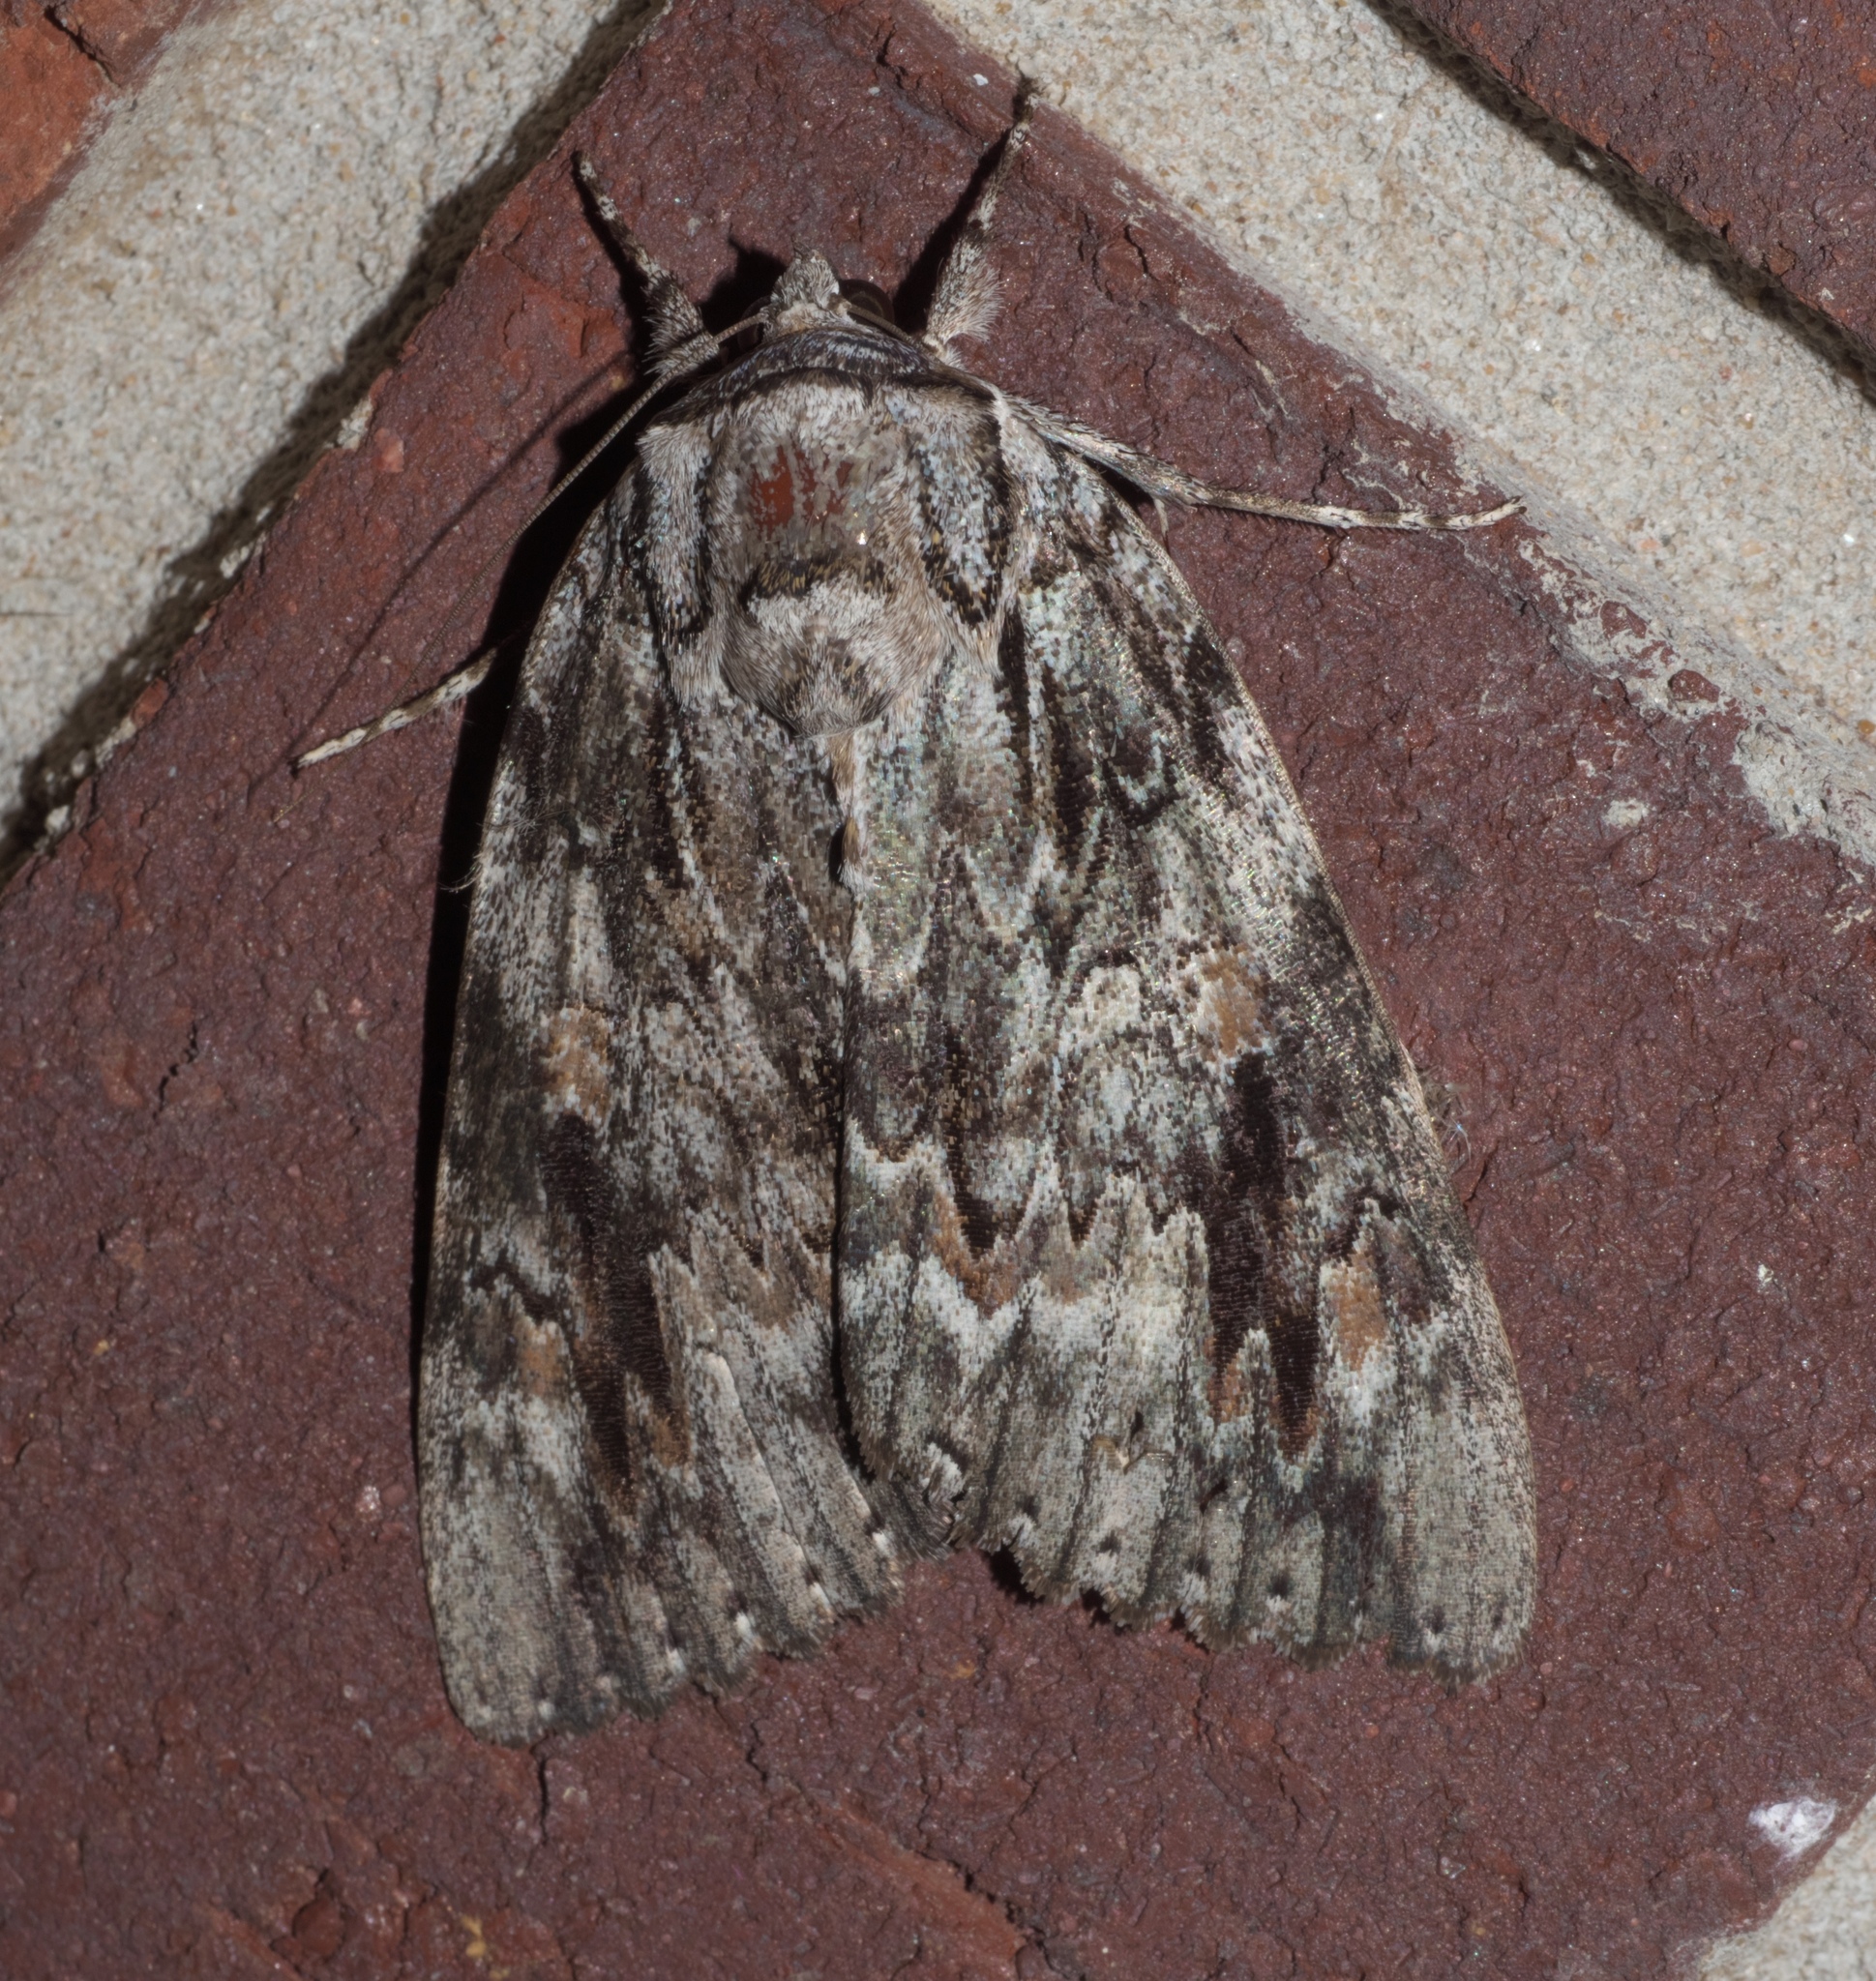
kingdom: Animalia
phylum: Arthropoda
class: Insecta
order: Lepidoptera
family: Erebidae
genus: Catocala
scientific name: Catocala maestosa
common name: Sad underwing
